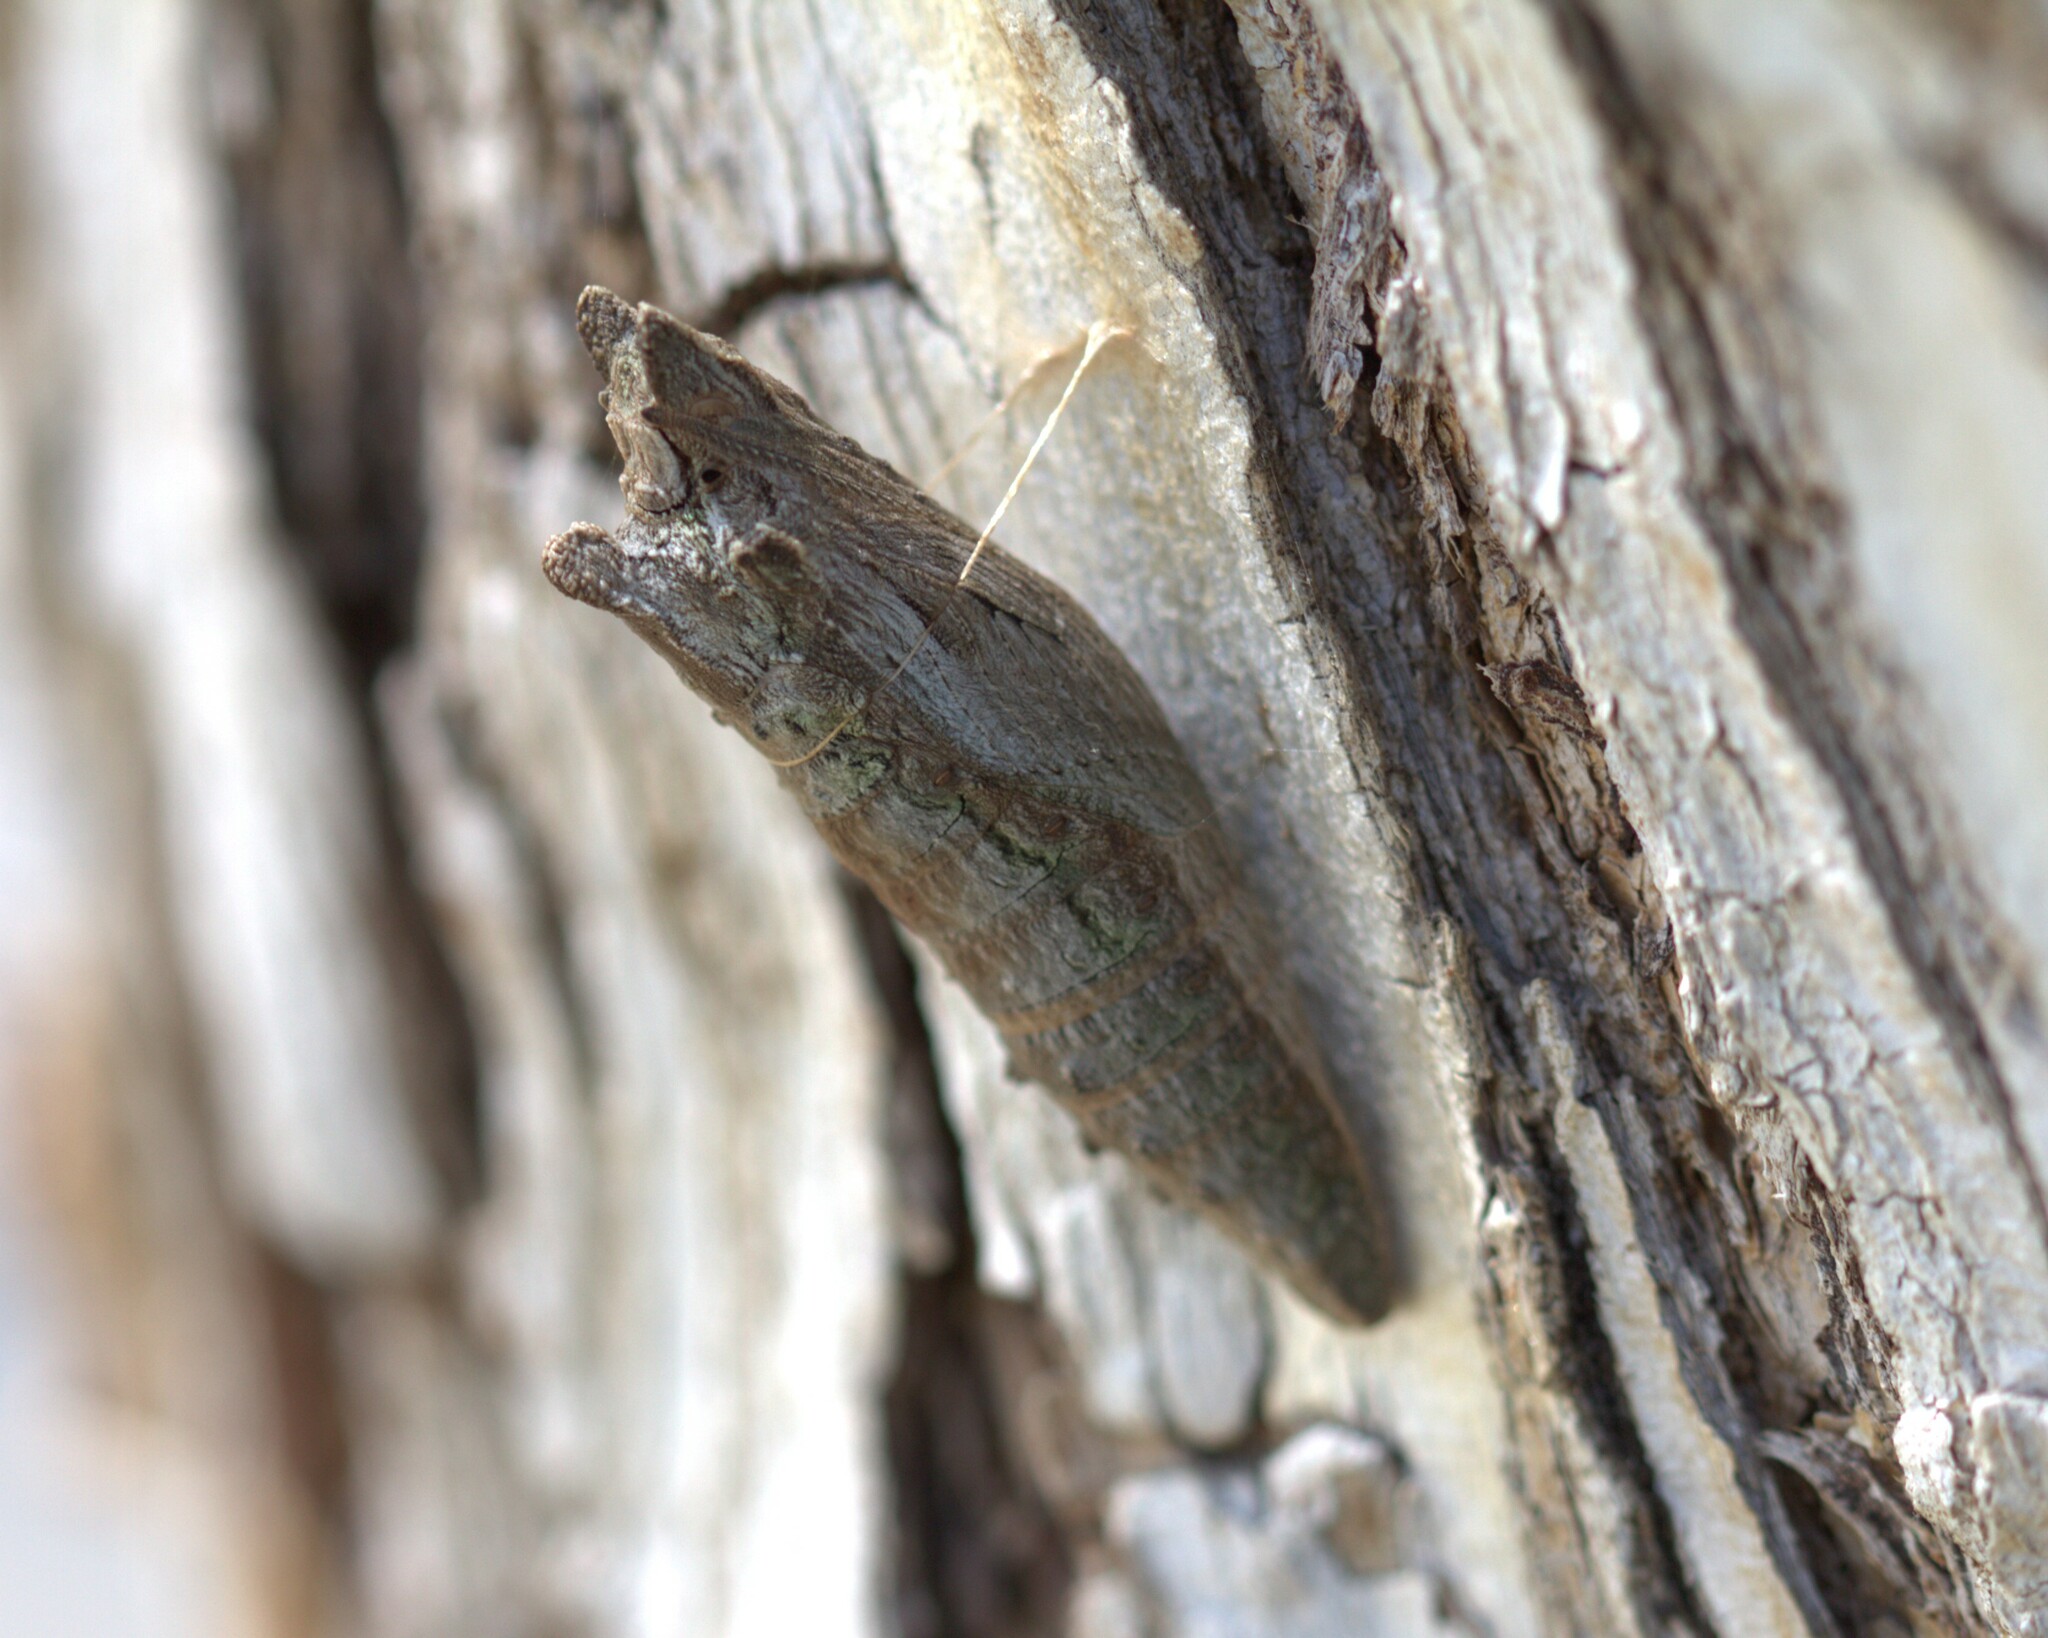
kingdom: Animalia
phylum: Arthropoda
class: Insecta
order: Lepidoptera
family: Papilionidae
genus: Papilio
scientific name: Papilio rutulus
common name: Western tiger swallowtail
